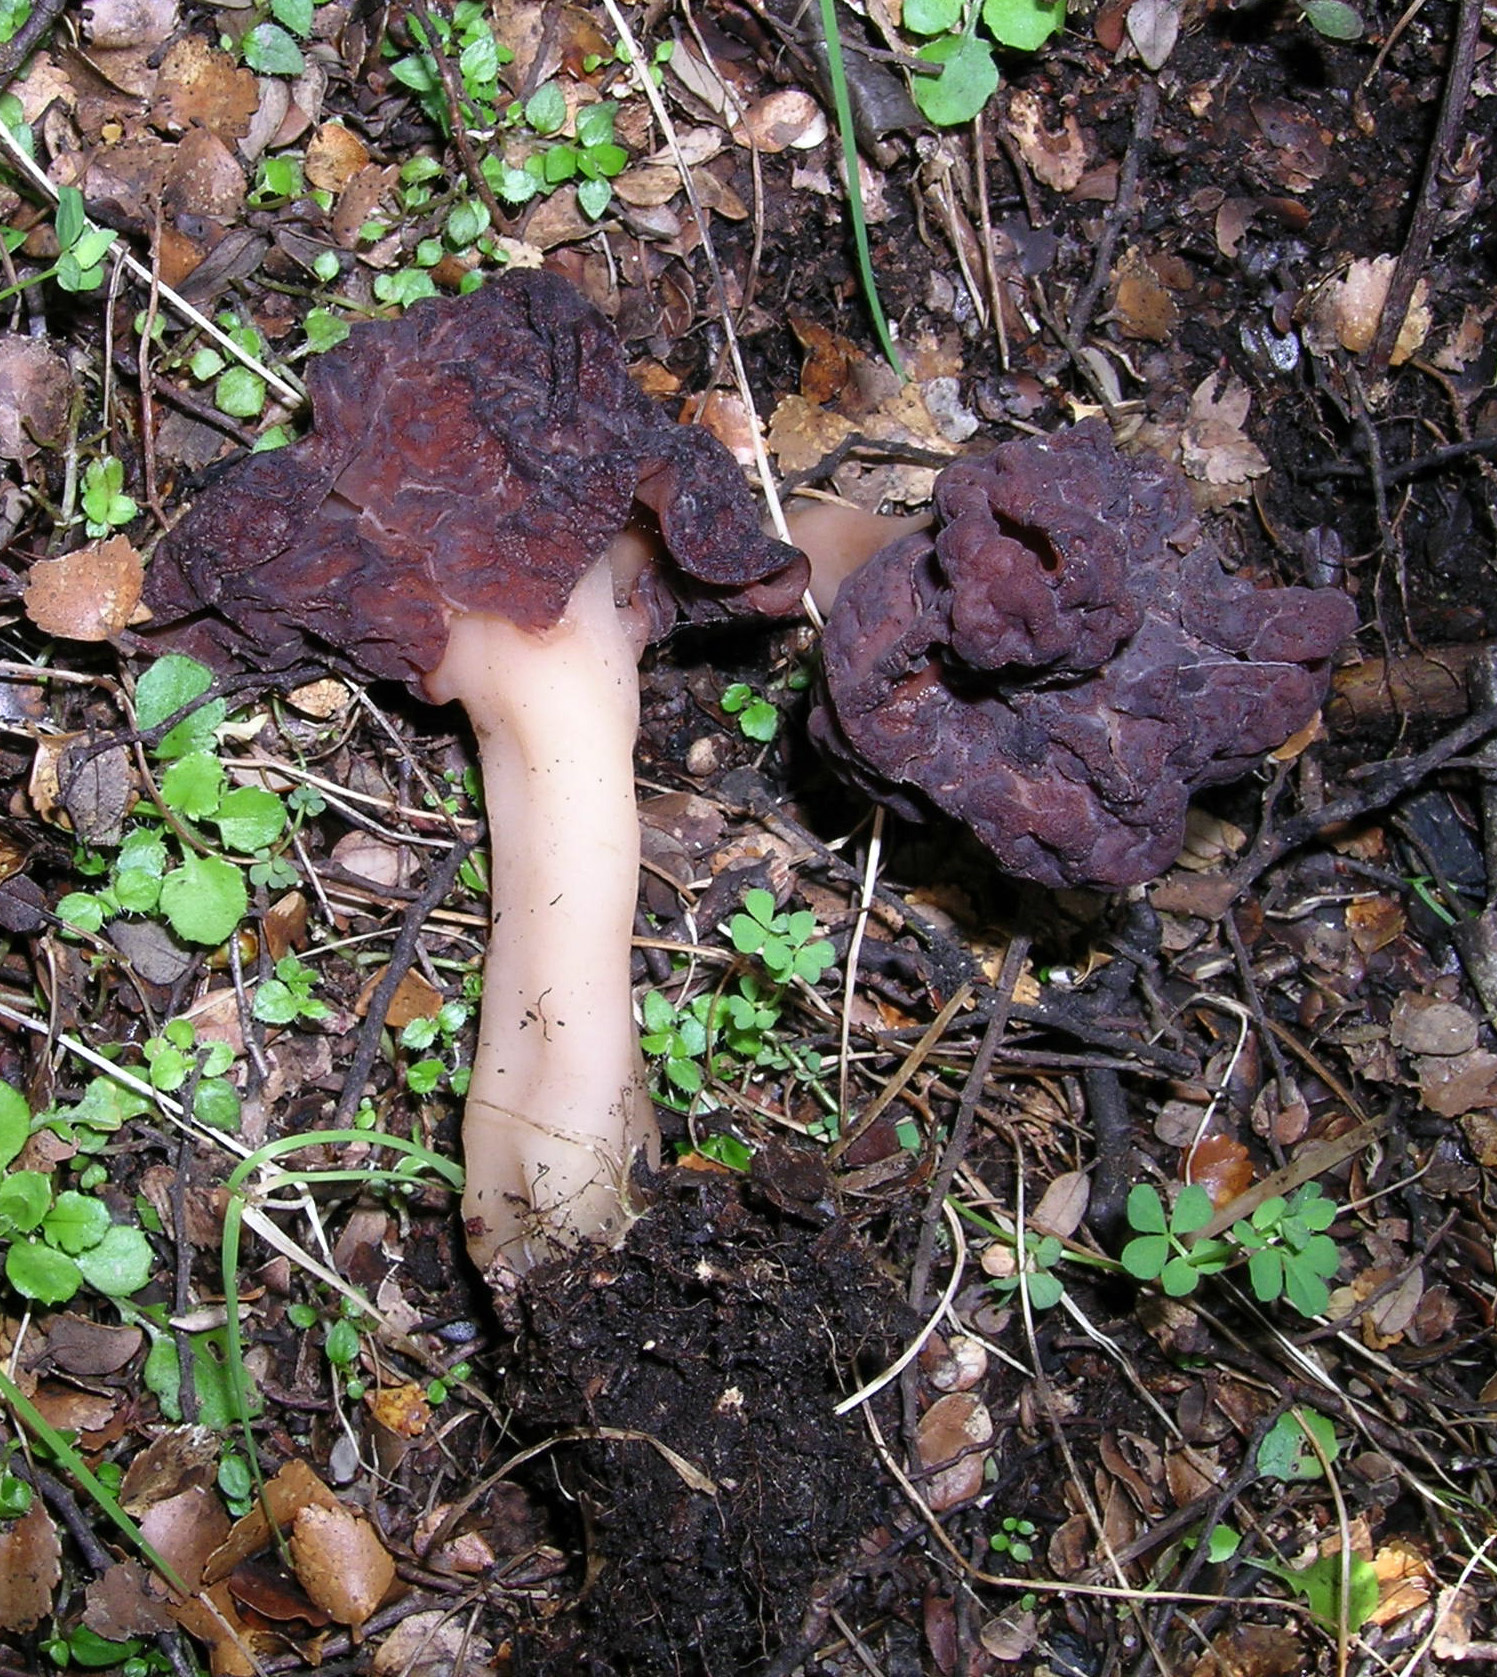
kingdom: Fungi
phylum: Ascomycota
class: Pezizomycetes
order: Pezizales
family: Discinaceae
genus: Gyromitra
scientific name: Gyromitra tasmanica
